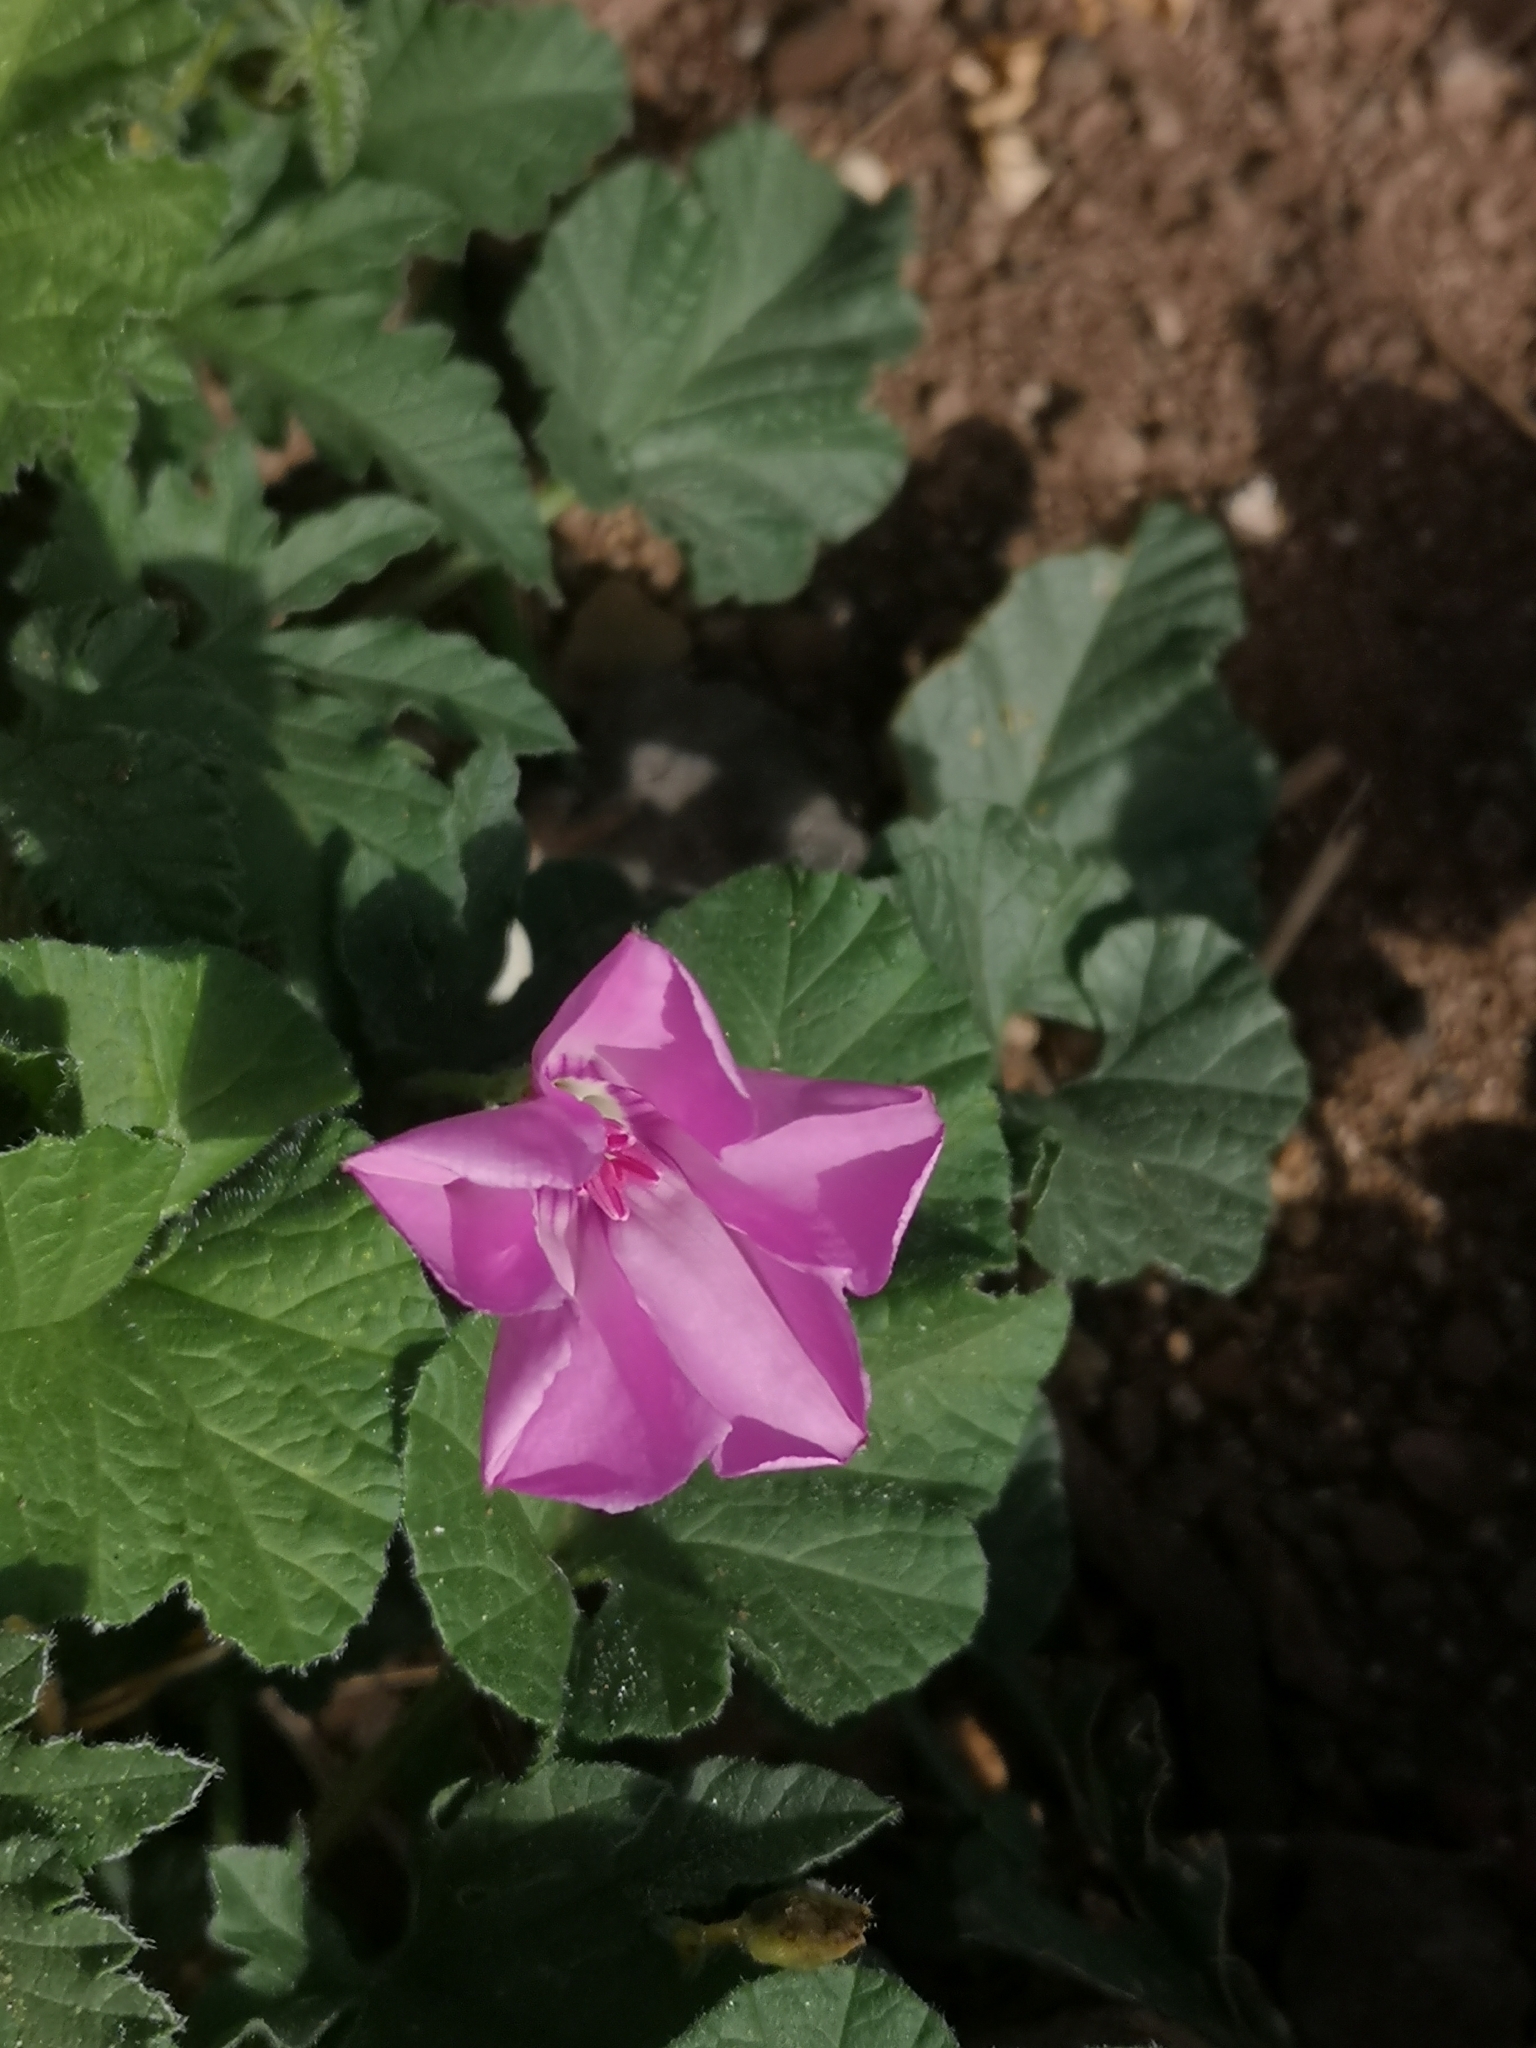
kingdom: Plantae
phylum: Tracheophyta
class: Magnoliopsida
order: Solanales
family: Convolvulaceae
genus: Convolvulus
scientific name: Convolvulus althaeoides
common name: Mallow bindweed
